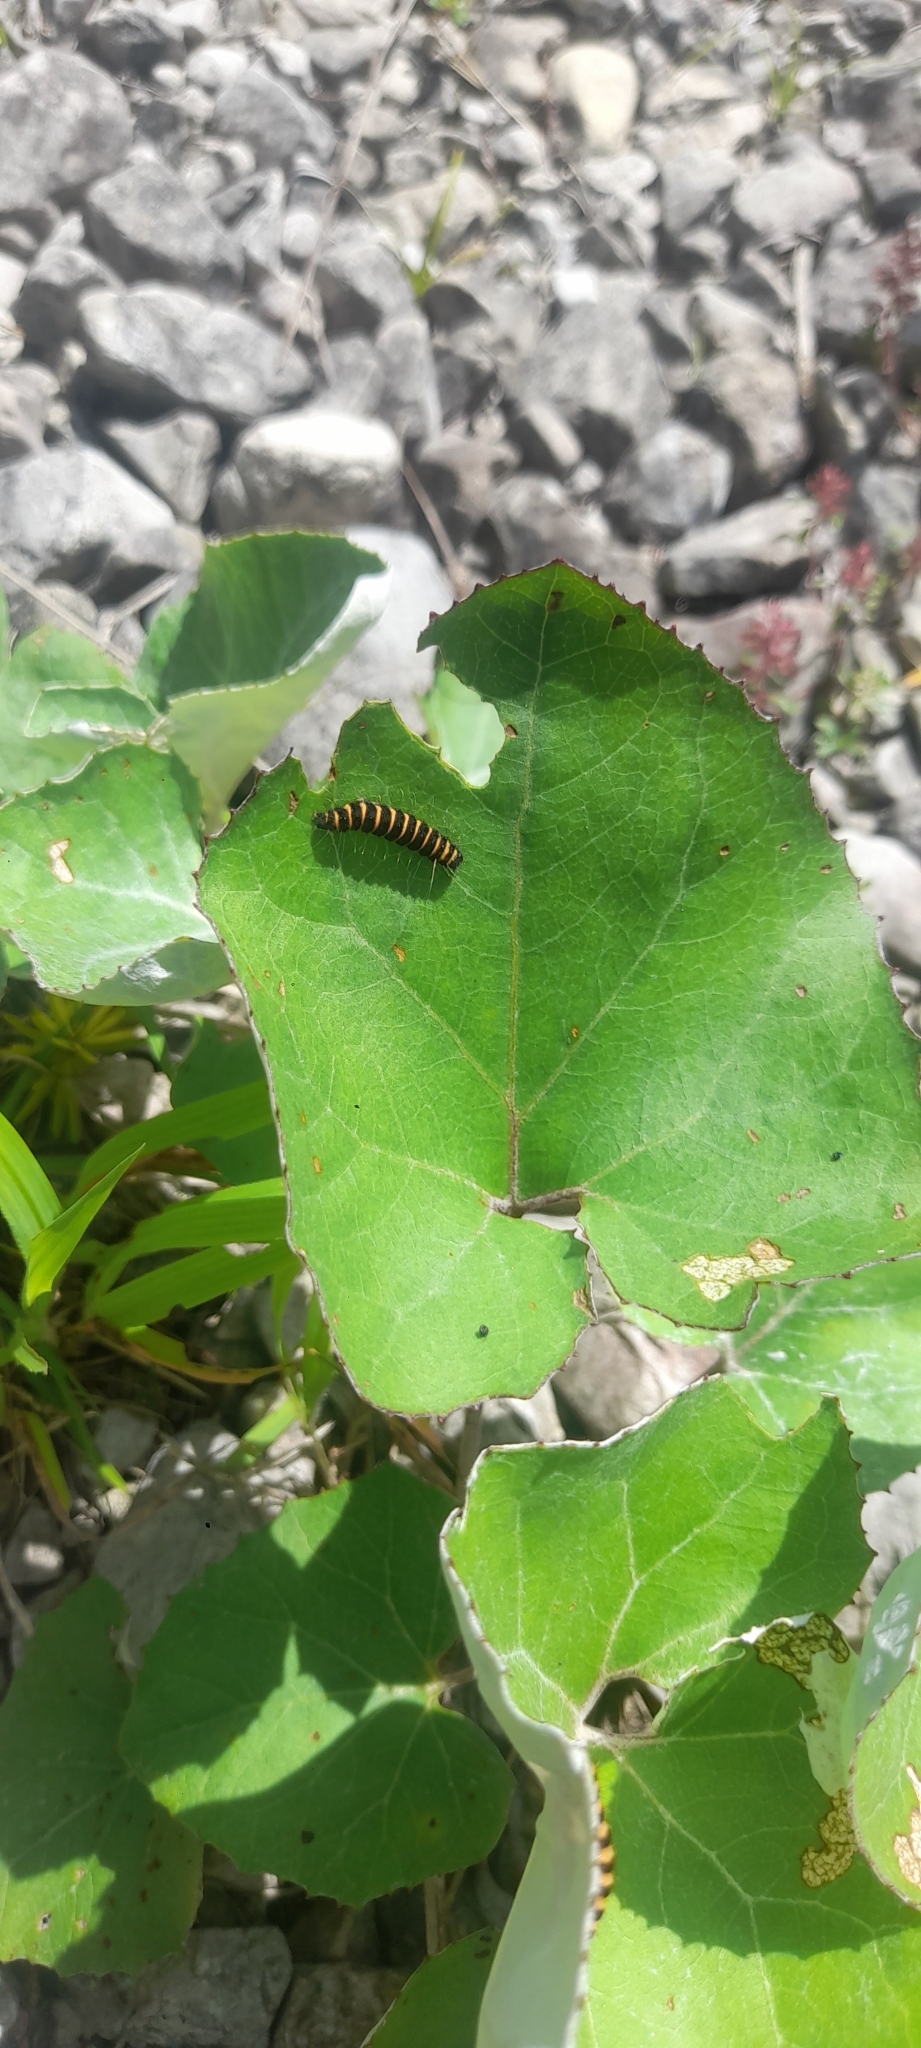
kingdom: Animalia
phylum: Arthropoda
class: Insecta
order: Lepidoptera
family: Erebidae
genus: Tyria
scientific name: Tyria jacobaeae
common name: Cinnabar
